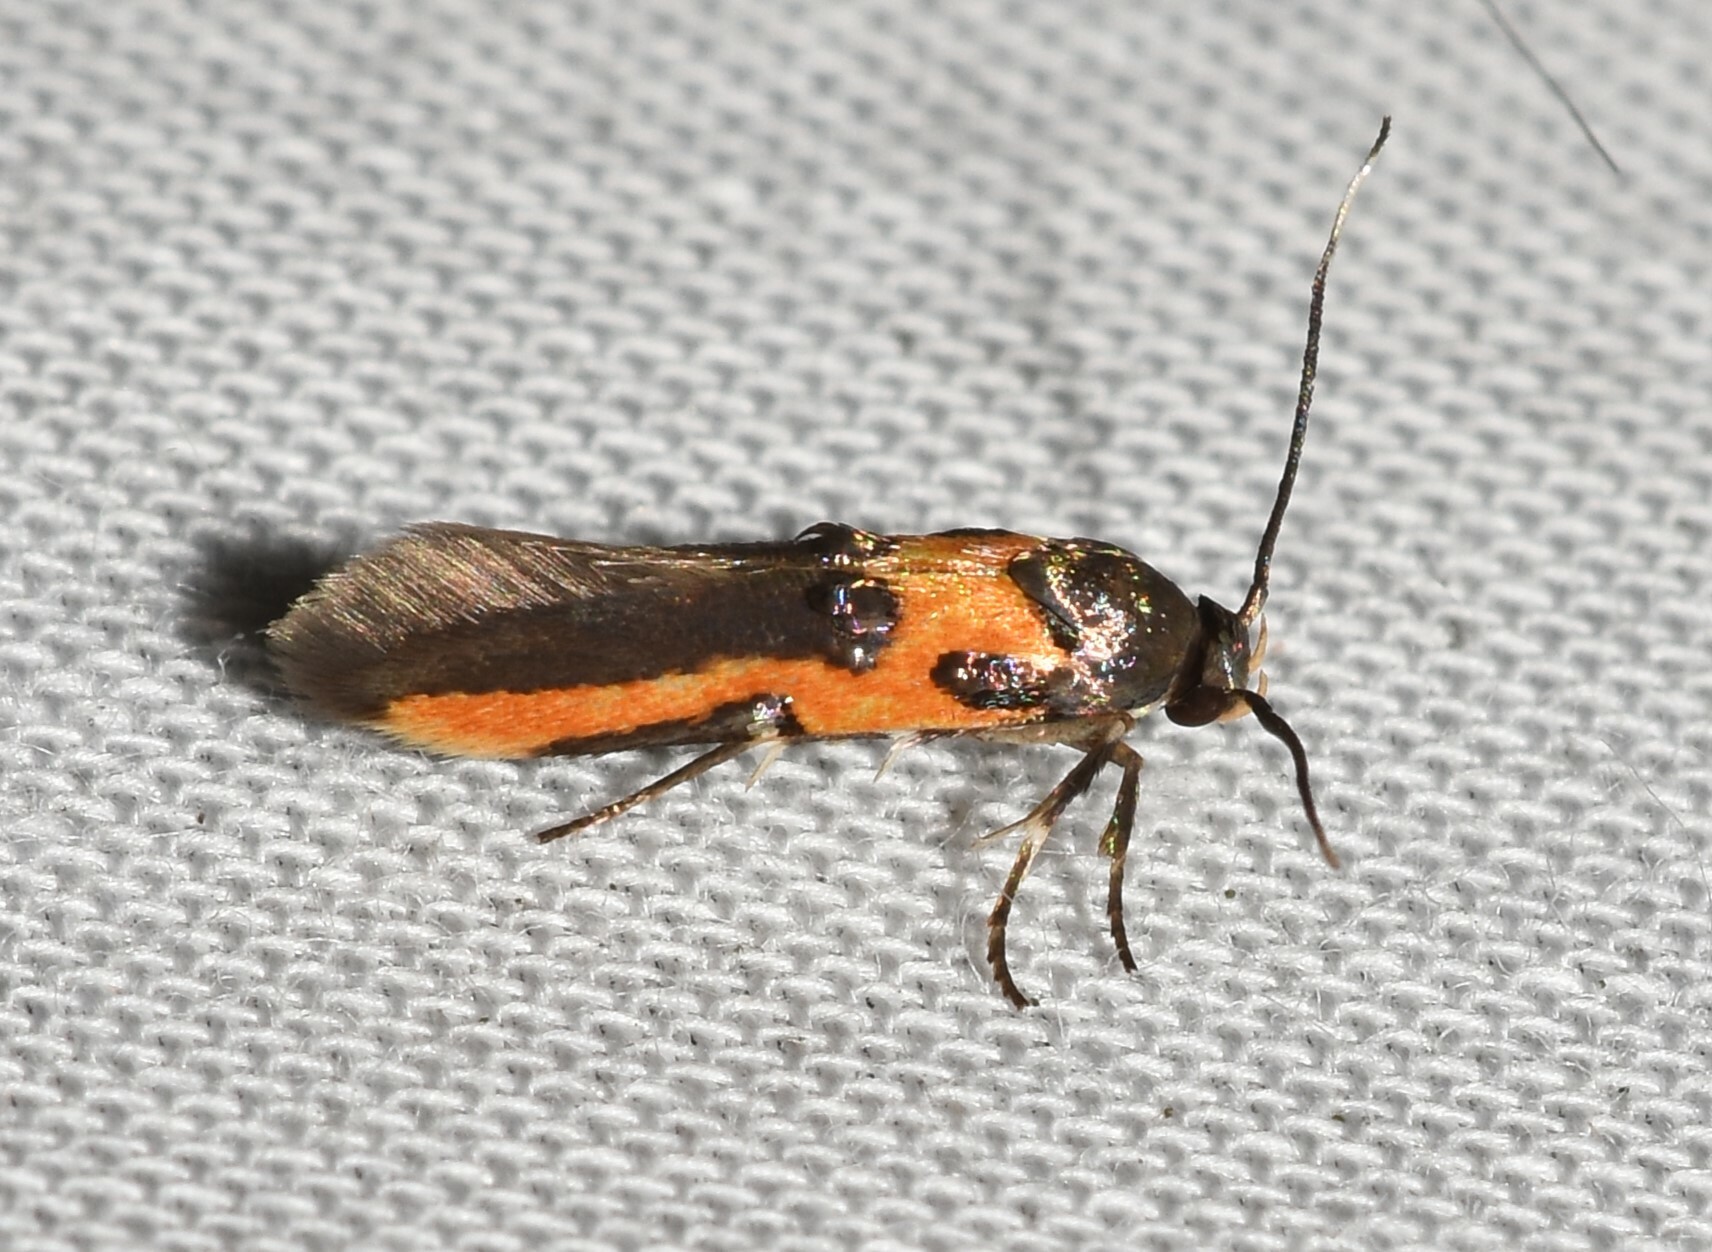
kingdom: Animalia
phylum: Arthropoda
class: Insecta
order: Lepidoptera
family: Cosmopterigidae
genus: Euclemensia
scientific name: Euclemensia bassettella
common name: Kermes scale moth
